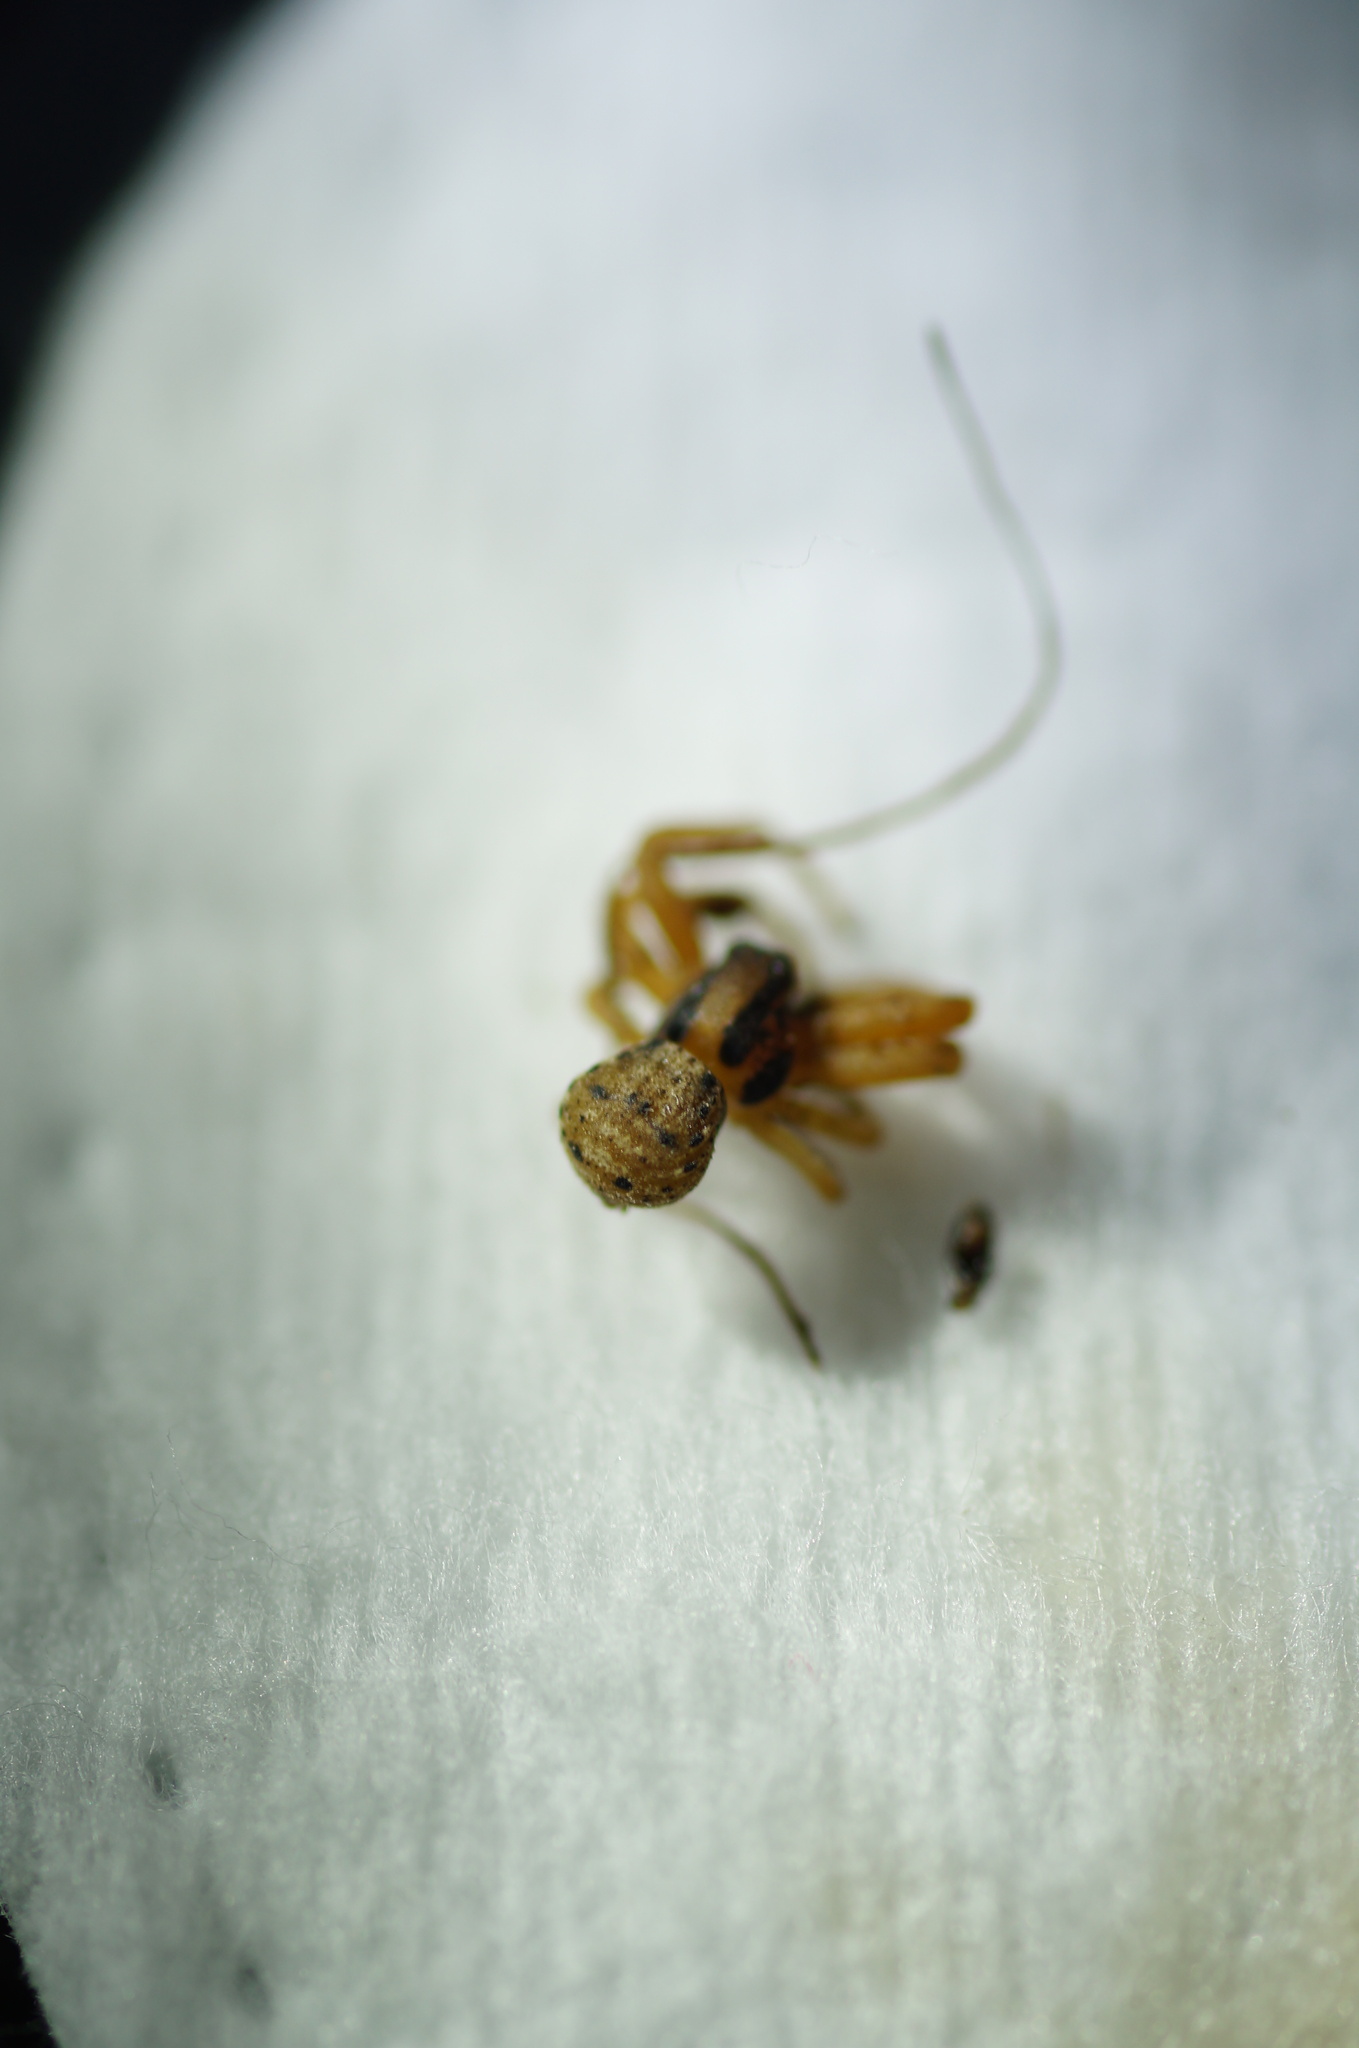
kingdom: Animalia
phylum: Arthropoda
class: Arachnida
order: Araneae
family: Thomisidae
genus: Ozyptila
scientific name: Ozyptila atomaria
